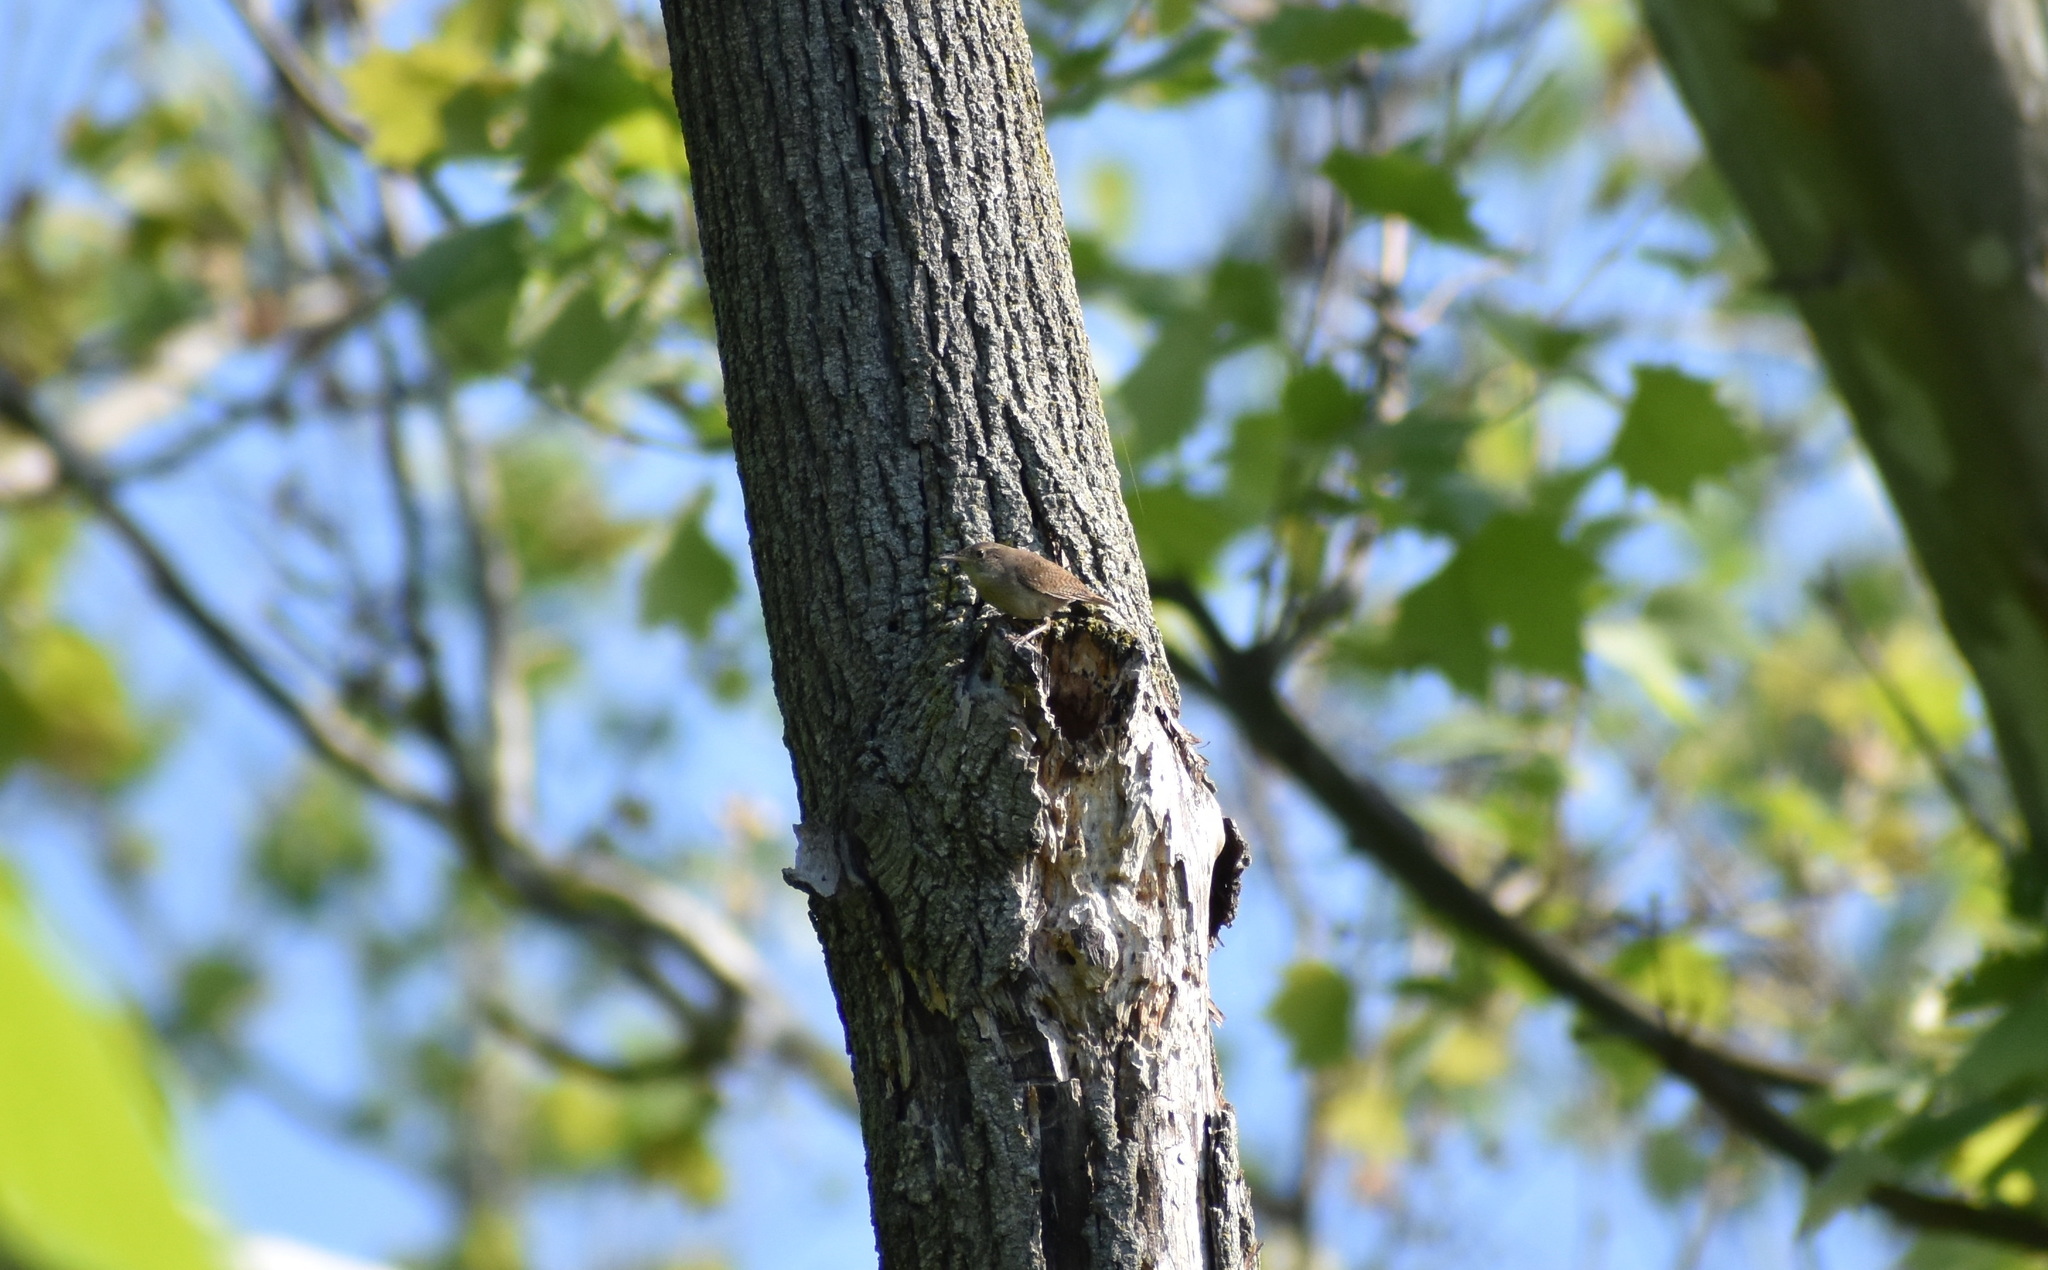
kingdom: Animalia
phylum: Chordata
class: Aves
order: Passeriformes
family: Troglodytidae
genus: Troglodytes
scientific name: Troglodytes aedon
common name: House wren
